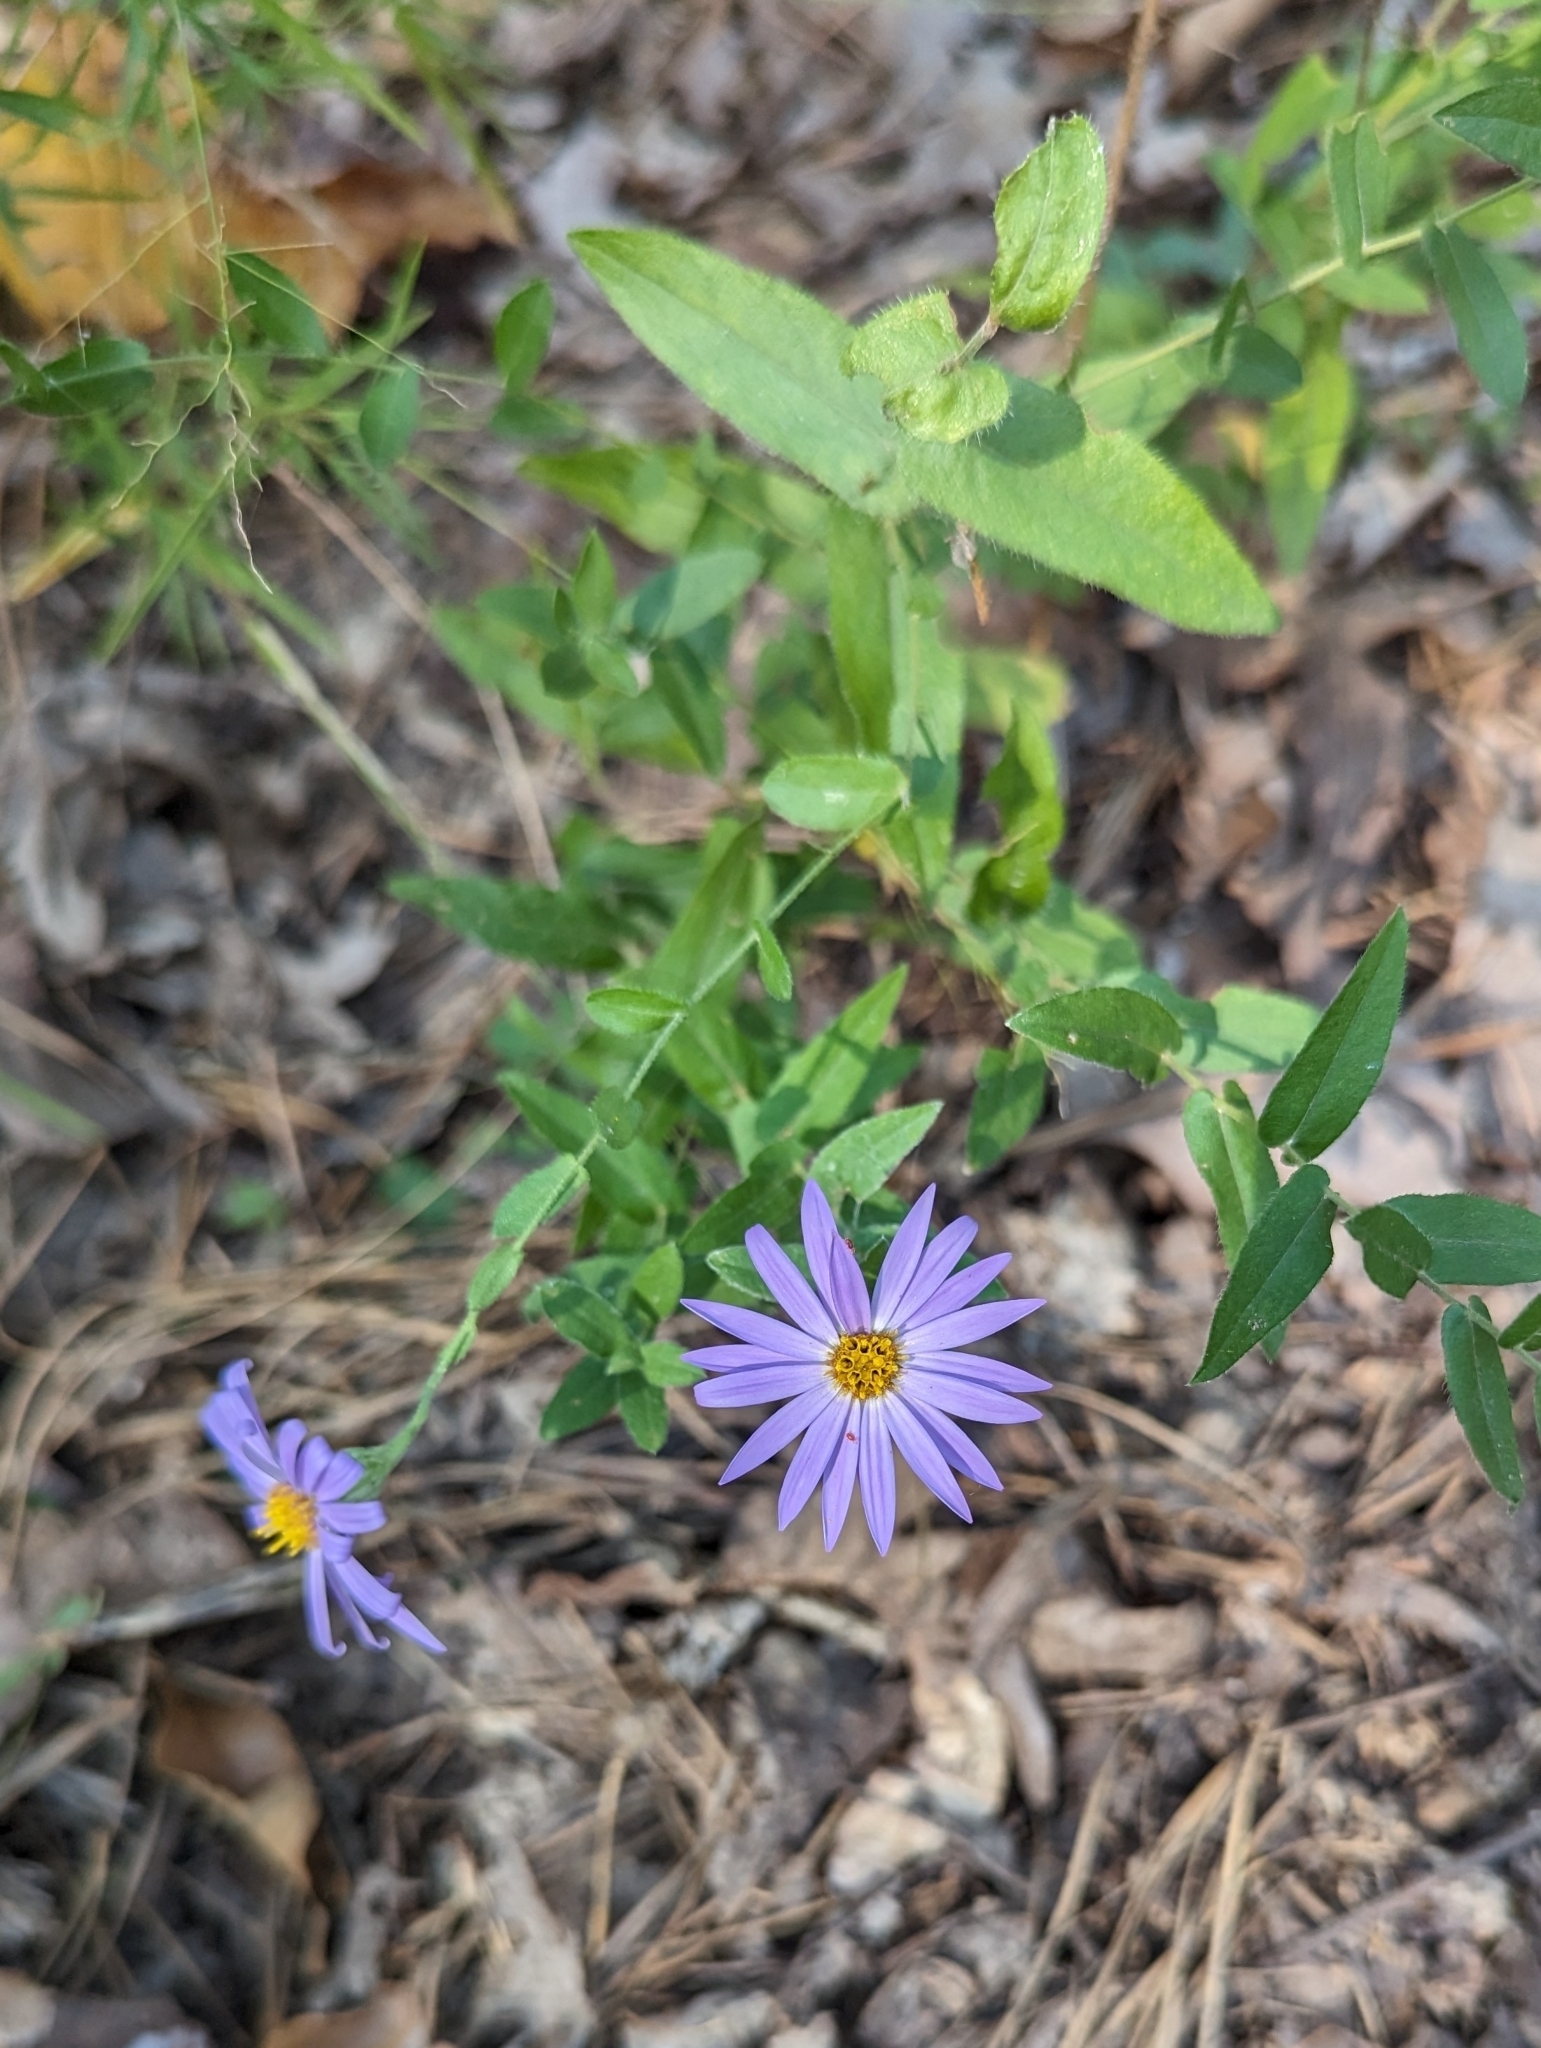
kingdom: Plantae
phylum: Tracheophyta
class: Magnoliopsida
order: Asterales
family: Asteraceae
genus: Symphyotrichum
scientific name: Symphyotrichum patens
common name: Late purple aster
